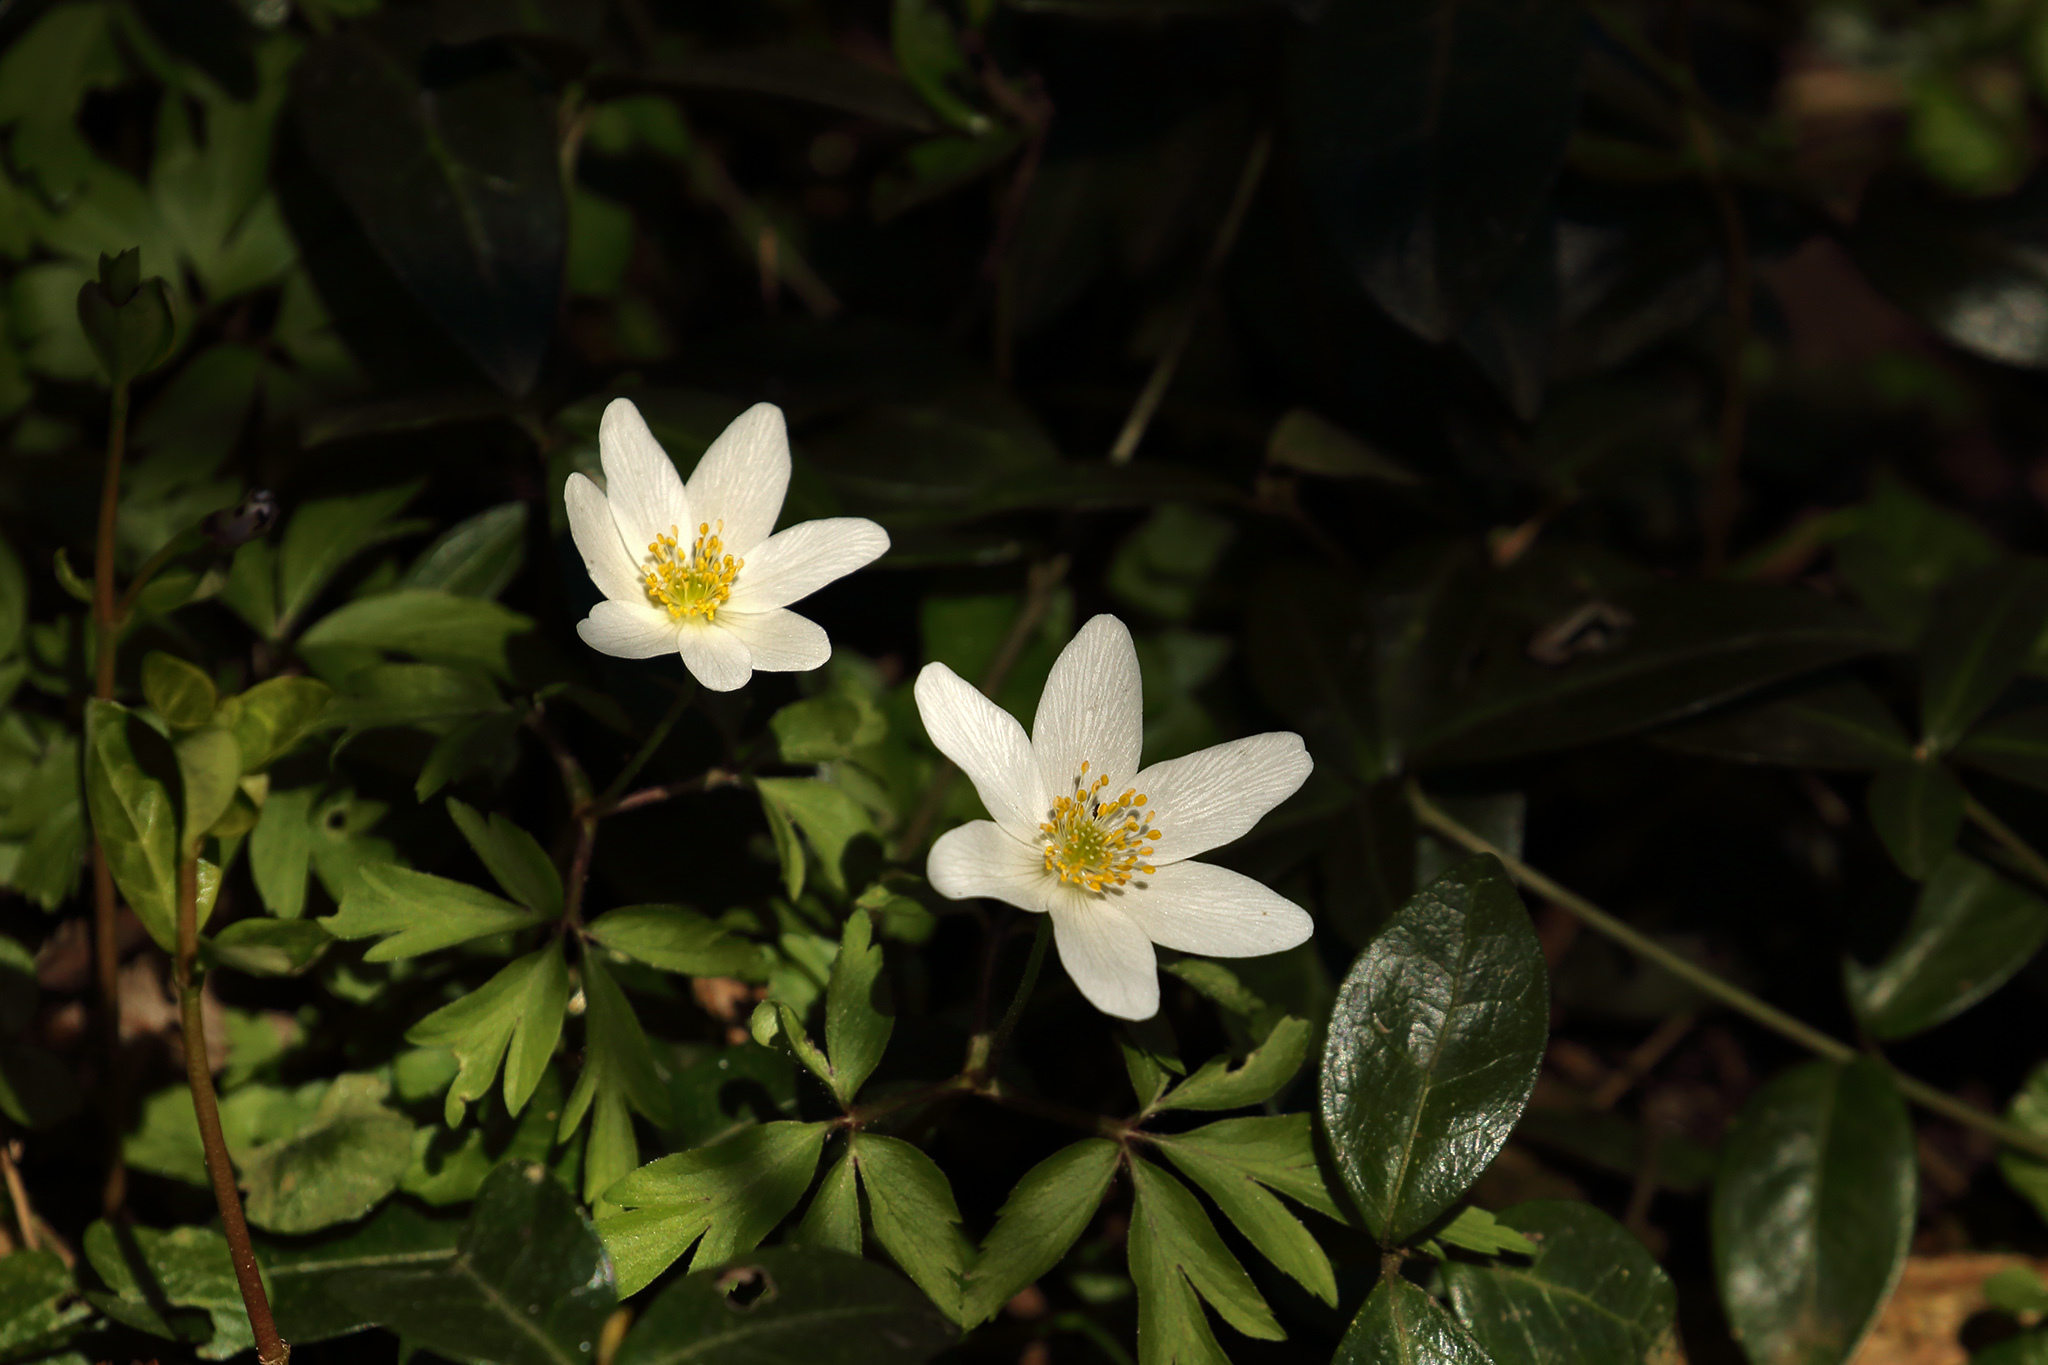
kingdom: Plantae
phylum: Tracheophyta
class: Magnoliopsida
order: Ranunculales
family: Ranunculaceae
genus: Anemone
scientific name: Anemone nemorosa
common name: Wood anemone
